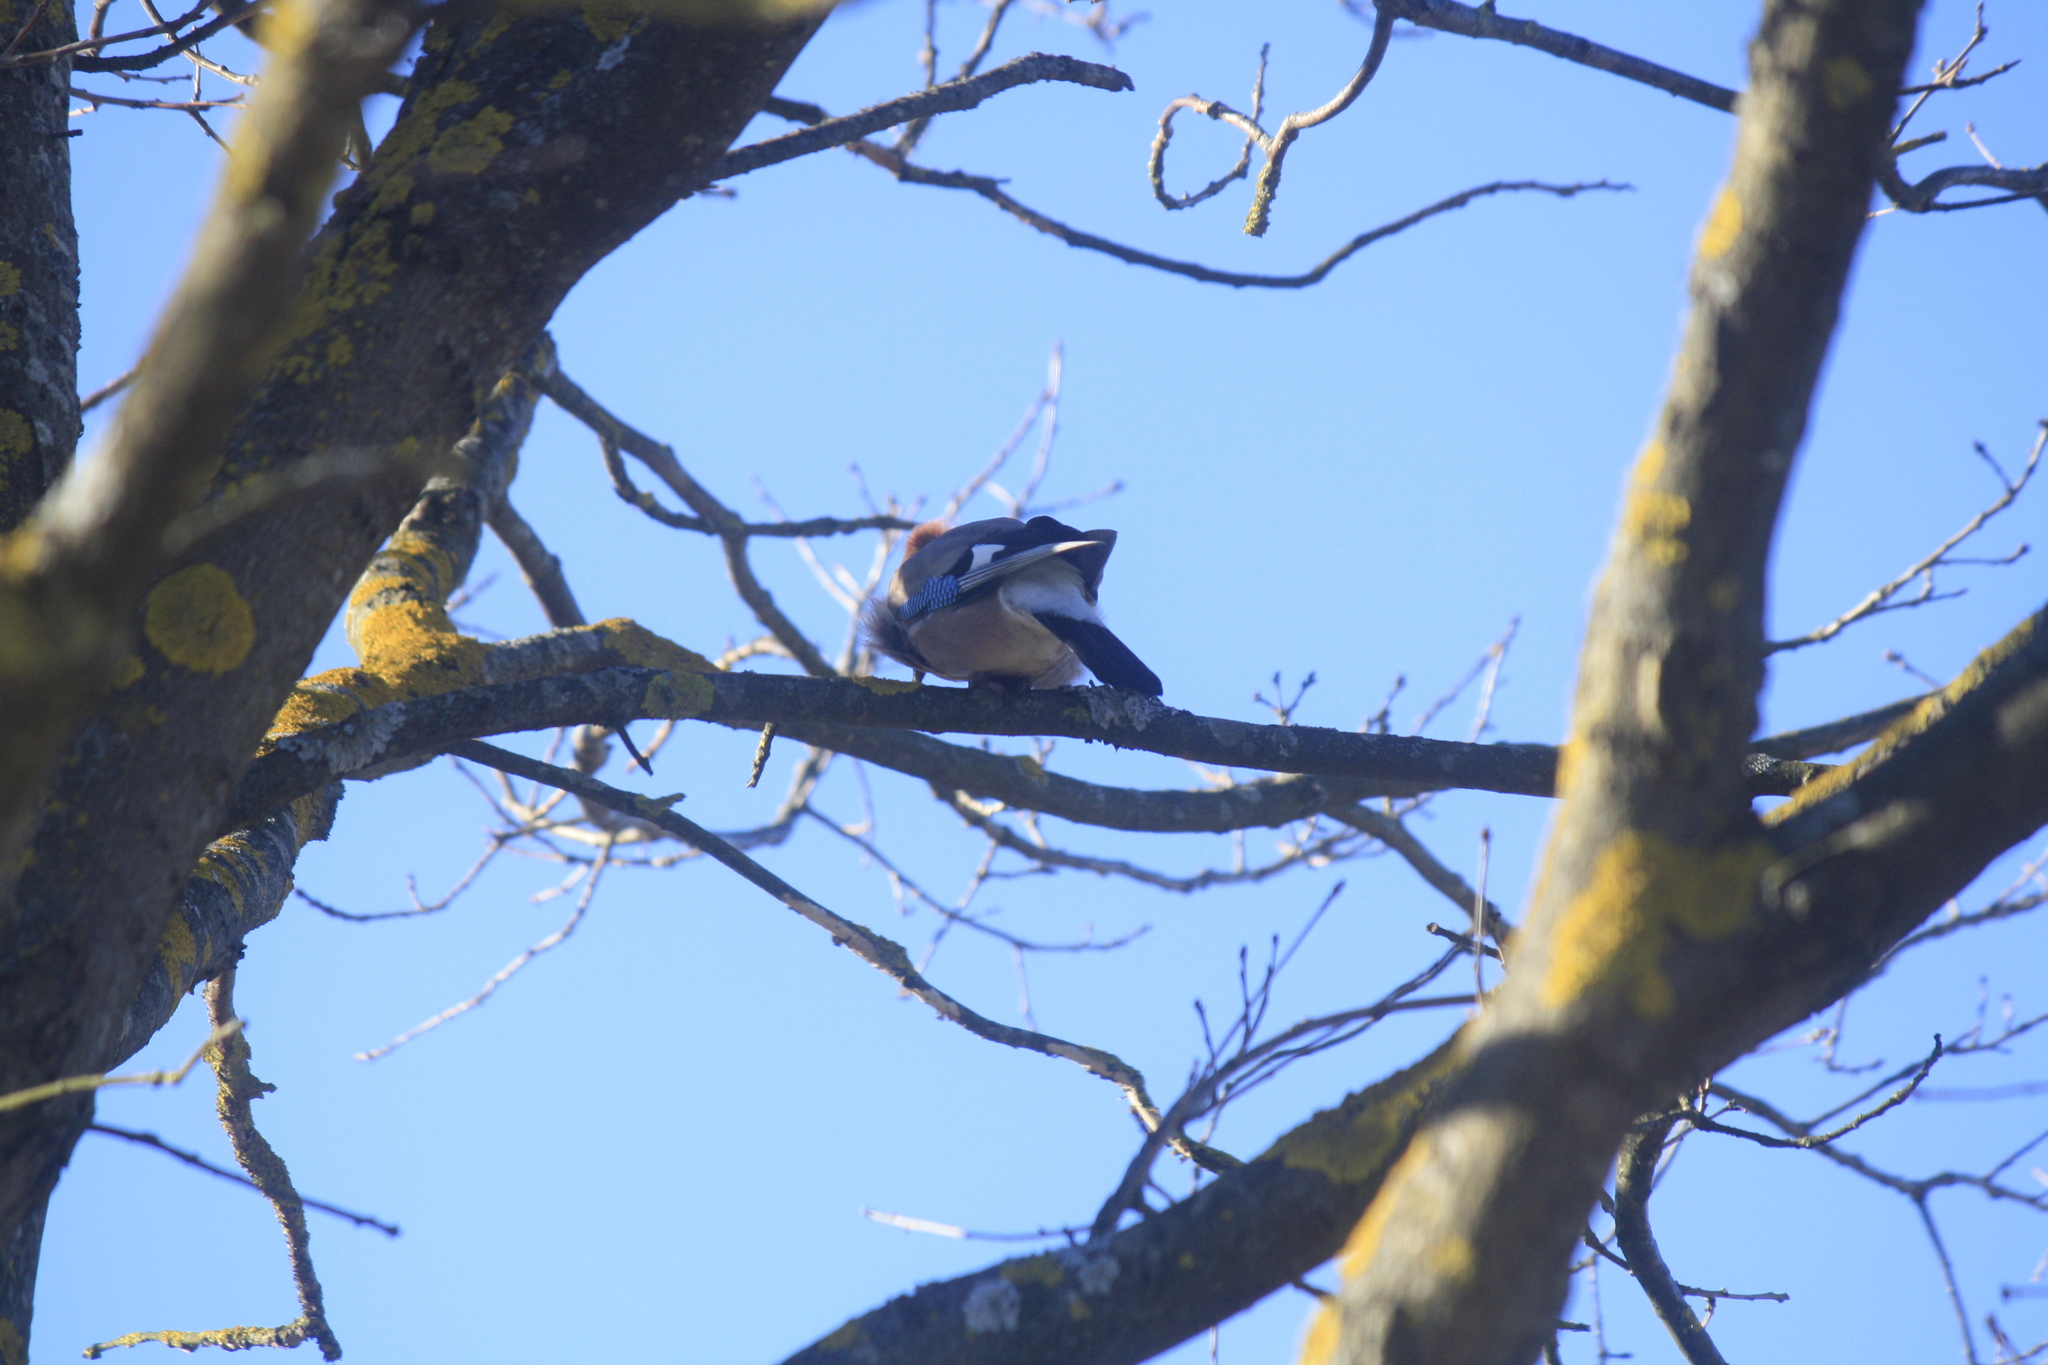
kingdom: Animalia
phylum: Chordata
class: Aves
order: Passeriformes
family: Corvidae
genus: Garrulus
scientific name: Garrulus glandarius
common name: Eurasian jay
